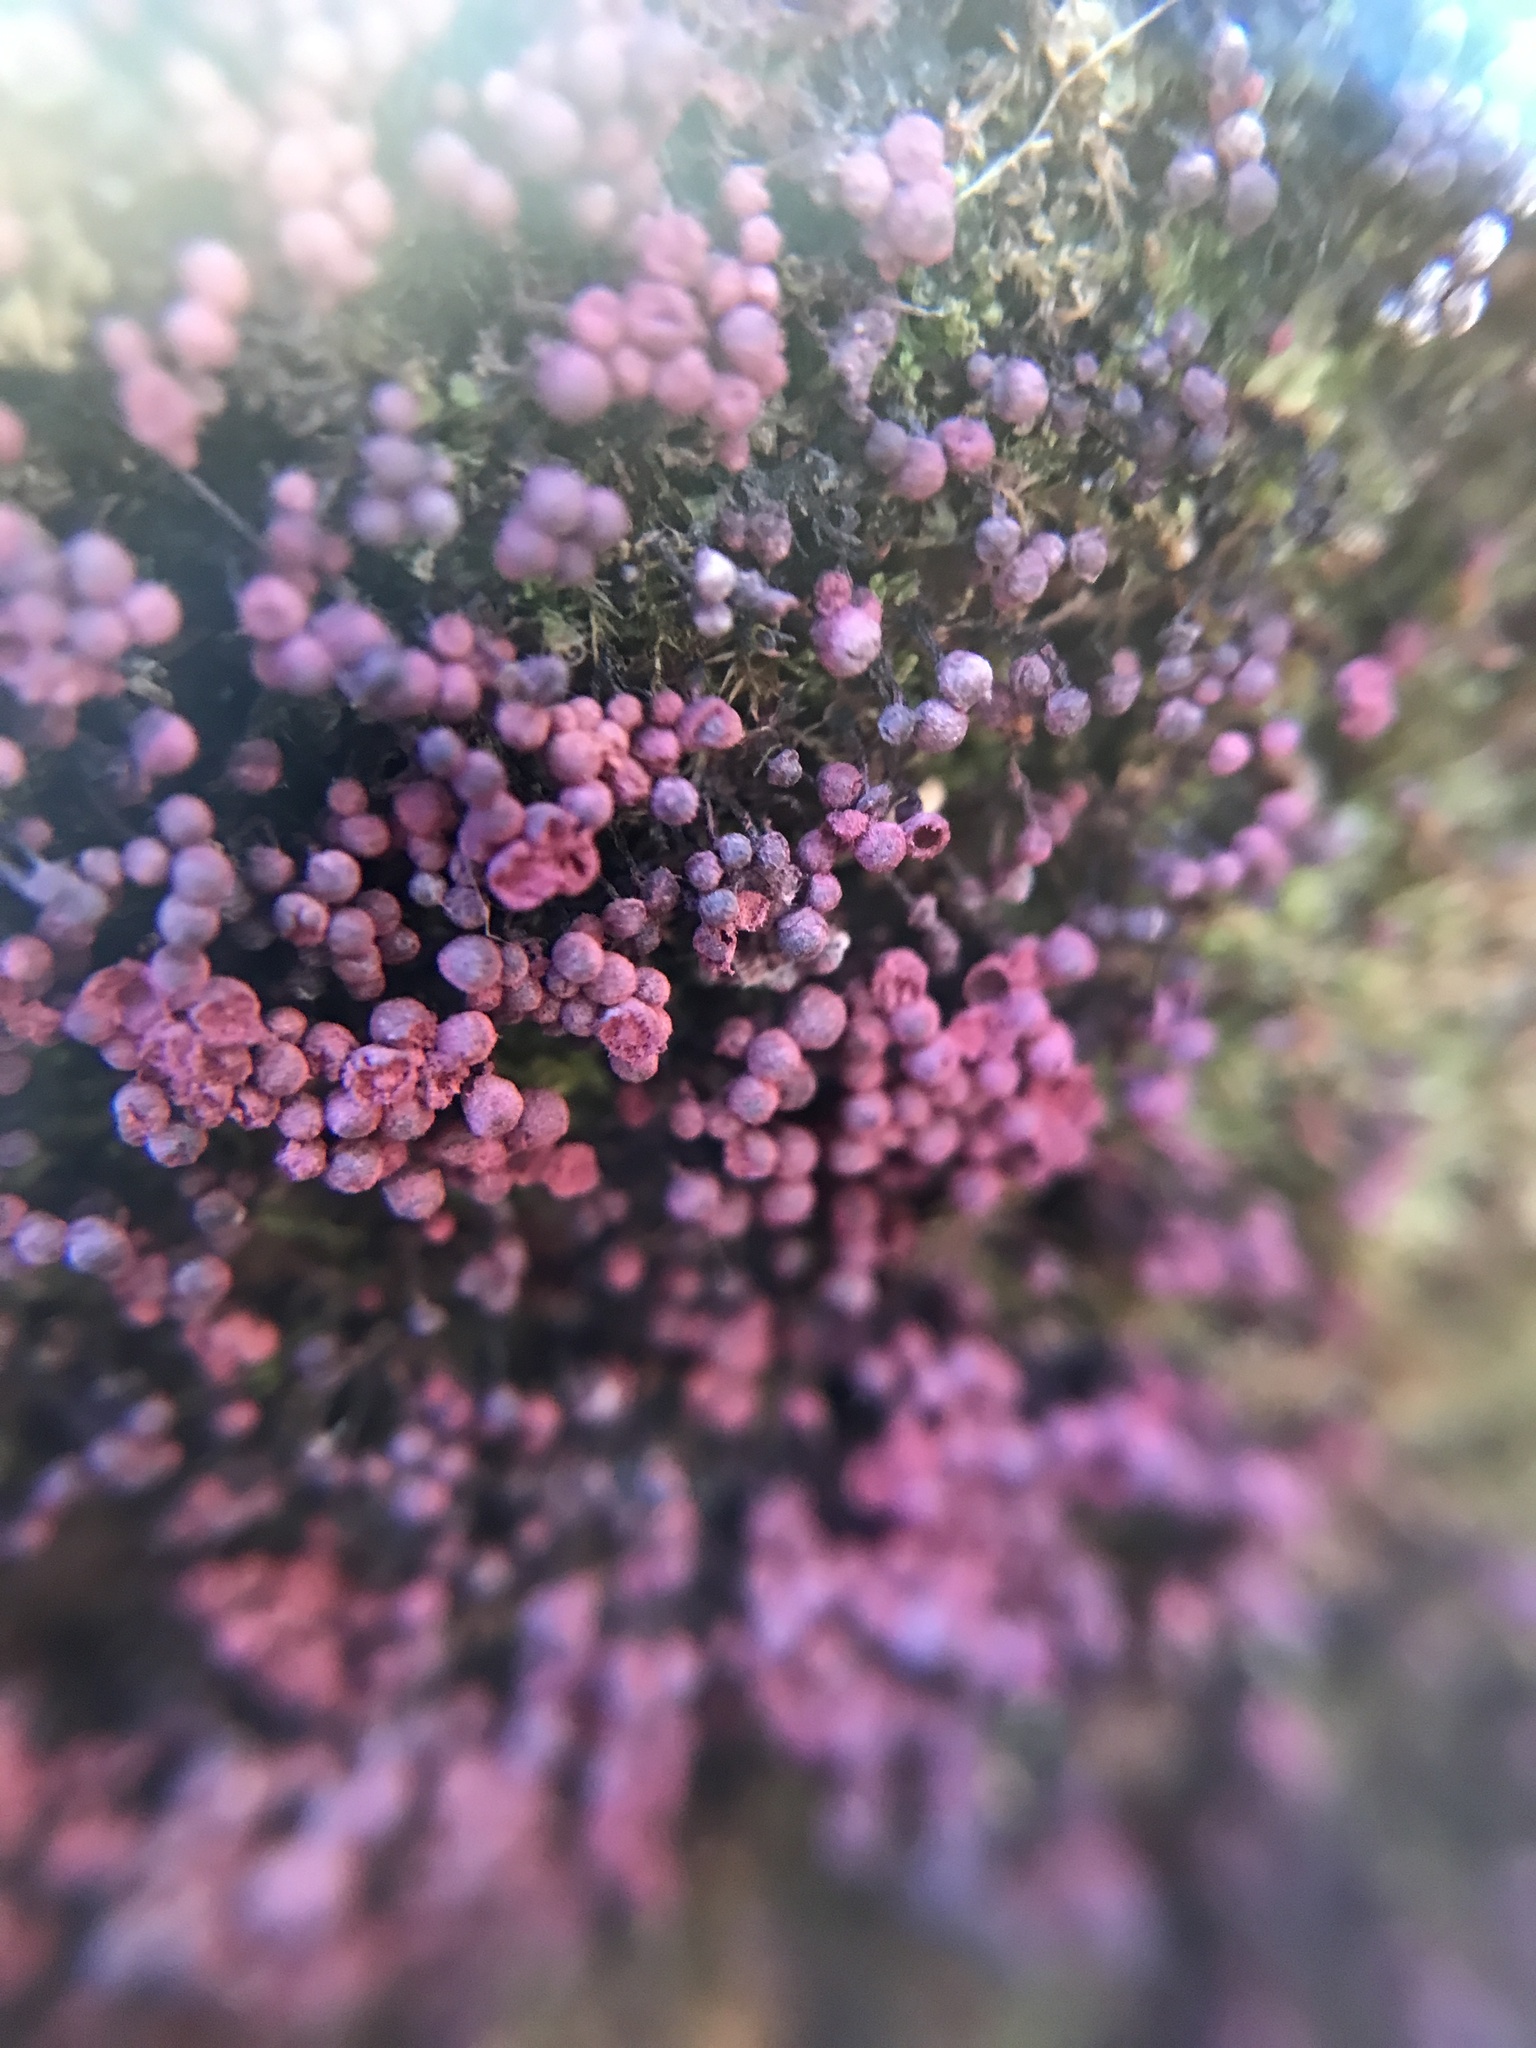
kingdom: Protozoa
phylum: Mycetozoa
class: Myxomycetes
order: Cribrariales
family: Cribrariaceae
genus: Cribraria
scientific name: Cribraria purpurea
